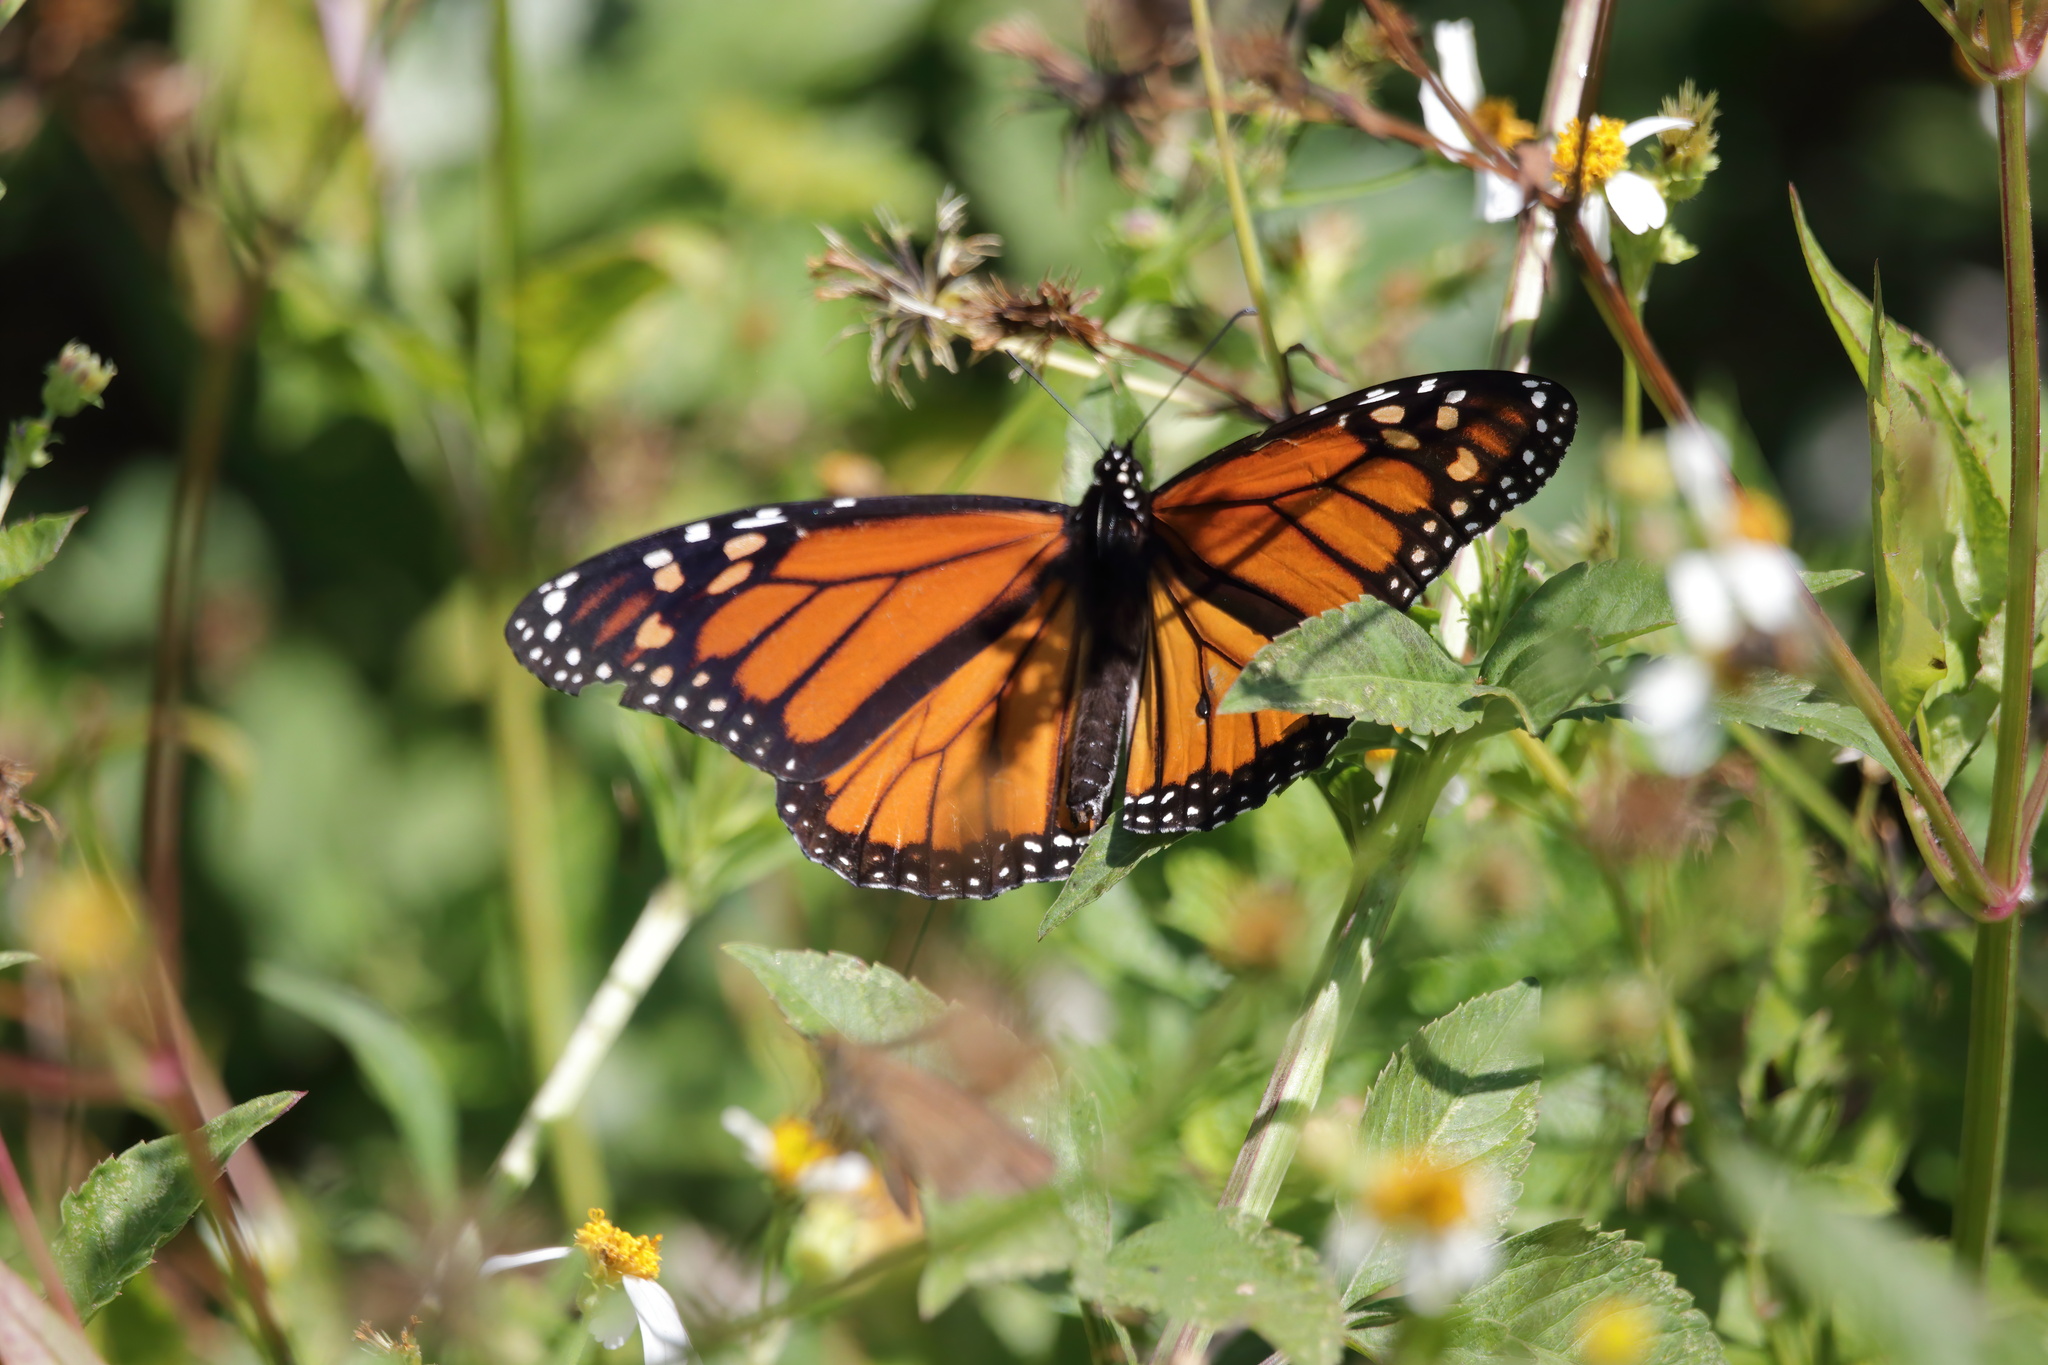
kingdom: Animalia
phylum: Arthropoda
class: Insecta
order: Lepidoptera
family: Nymphalidae
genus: Danaus
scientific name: Danaus plexippus
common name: Monarch
